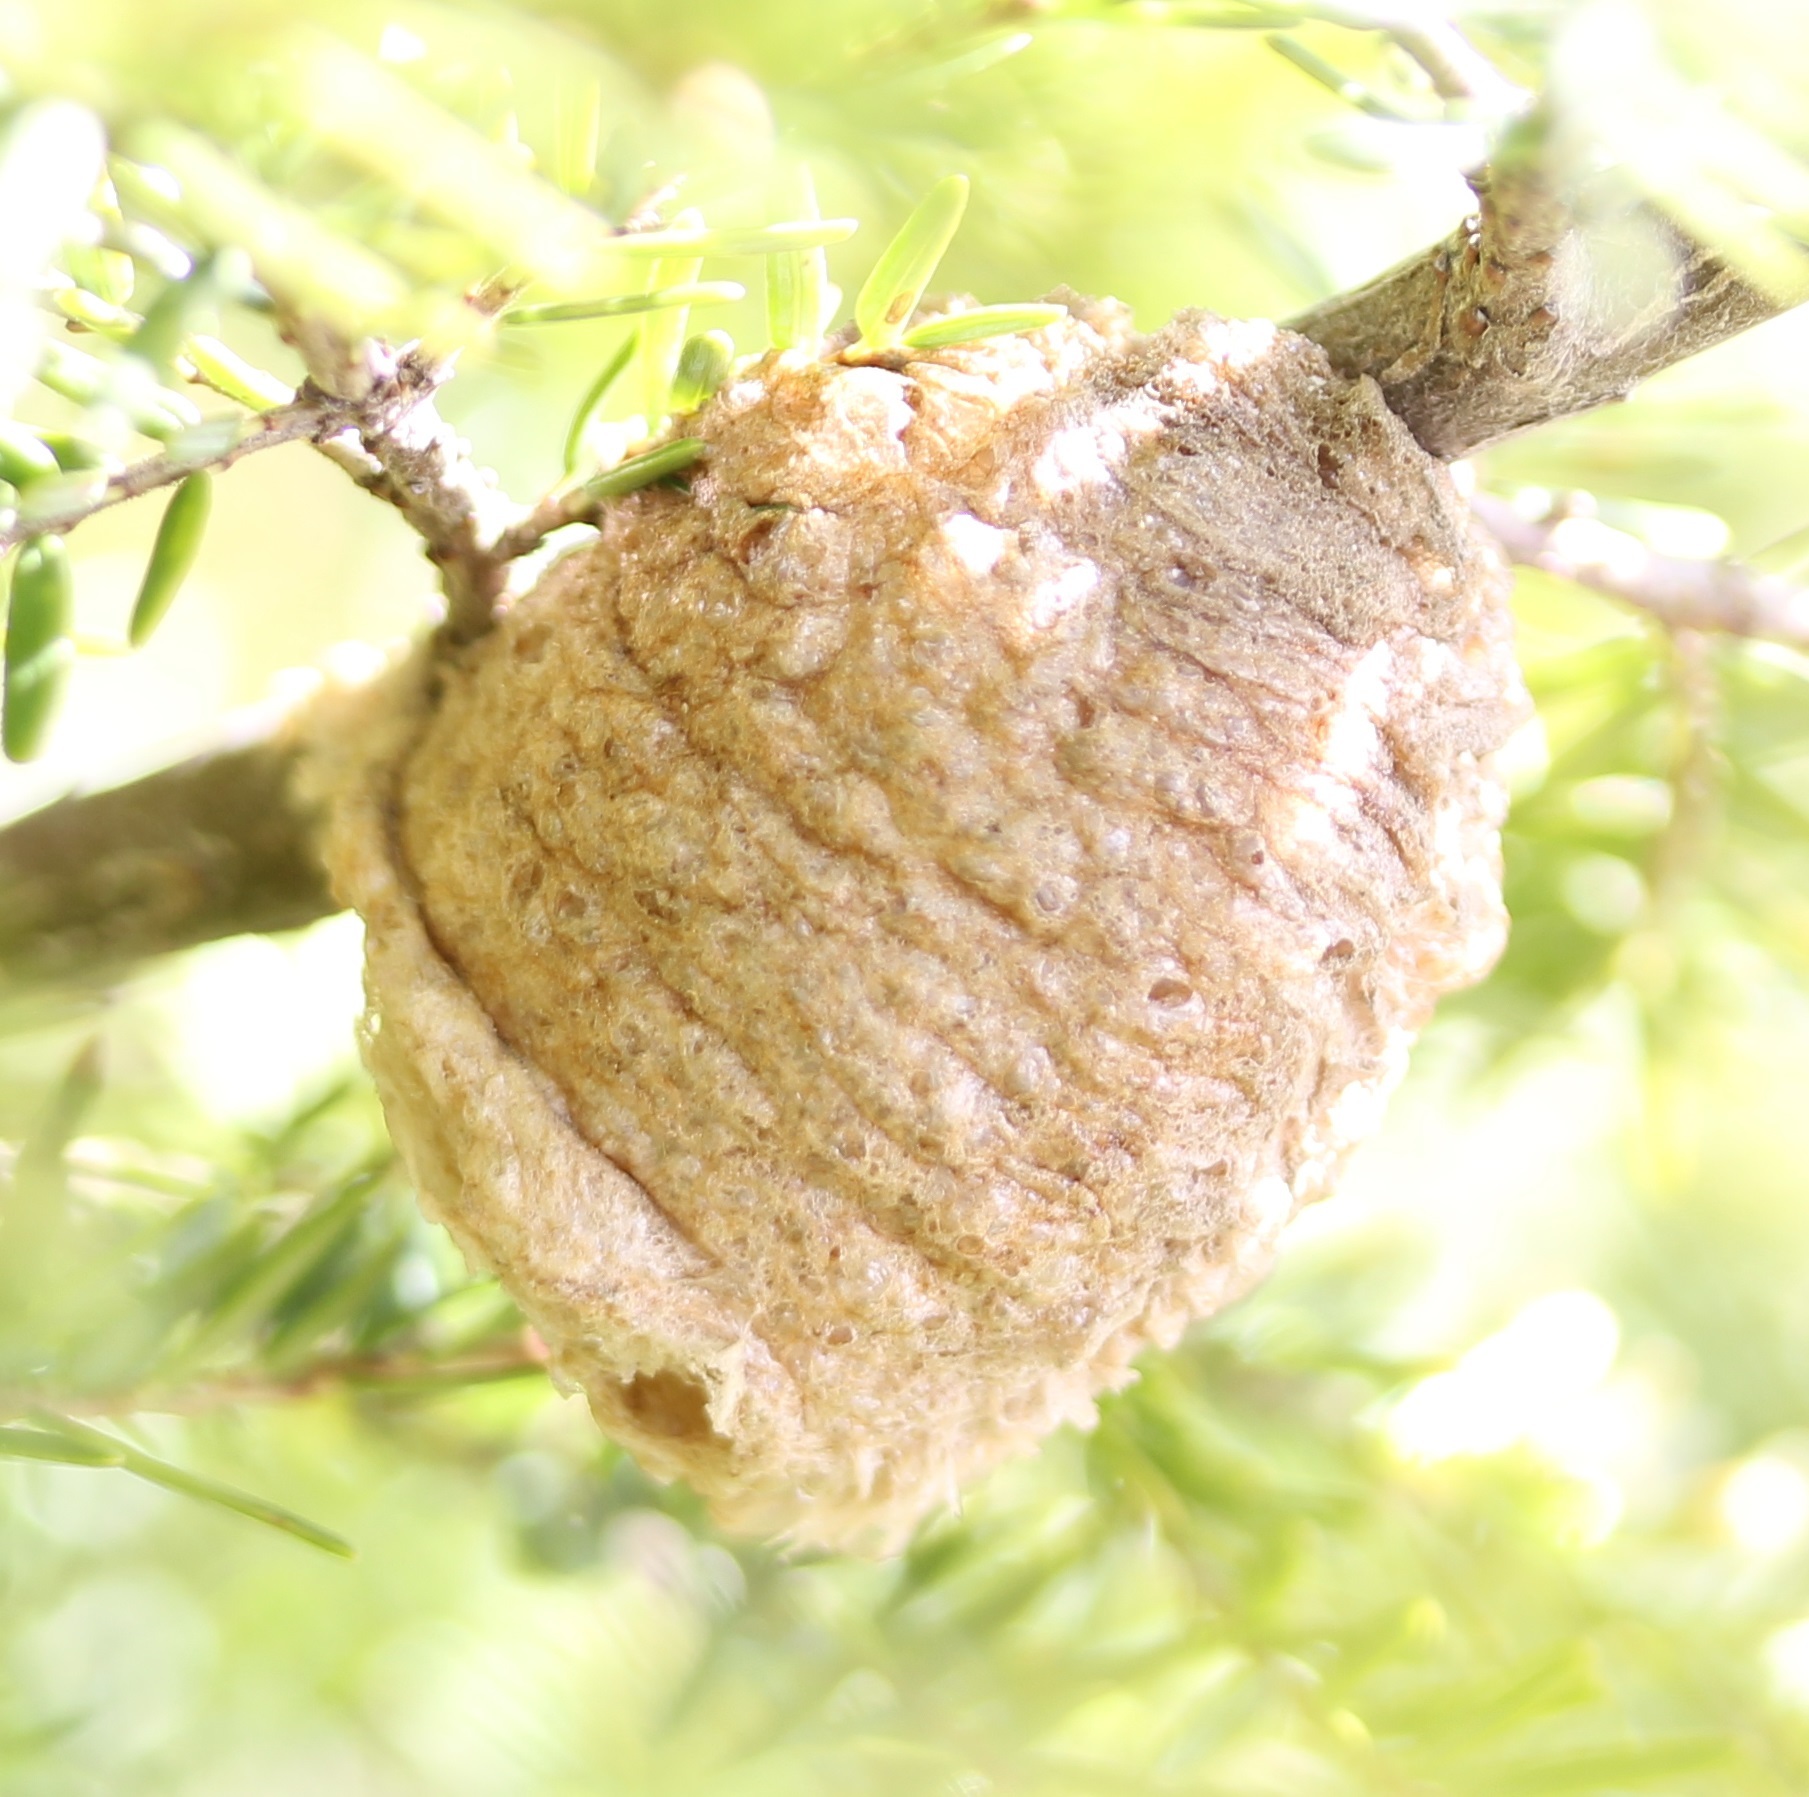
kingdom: Animalia
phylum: Arthropoda
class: Insecta
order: Mantodea
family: Mantidae
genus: Tenodera
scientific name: Tenodera sinensis
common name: Chinese mantis
